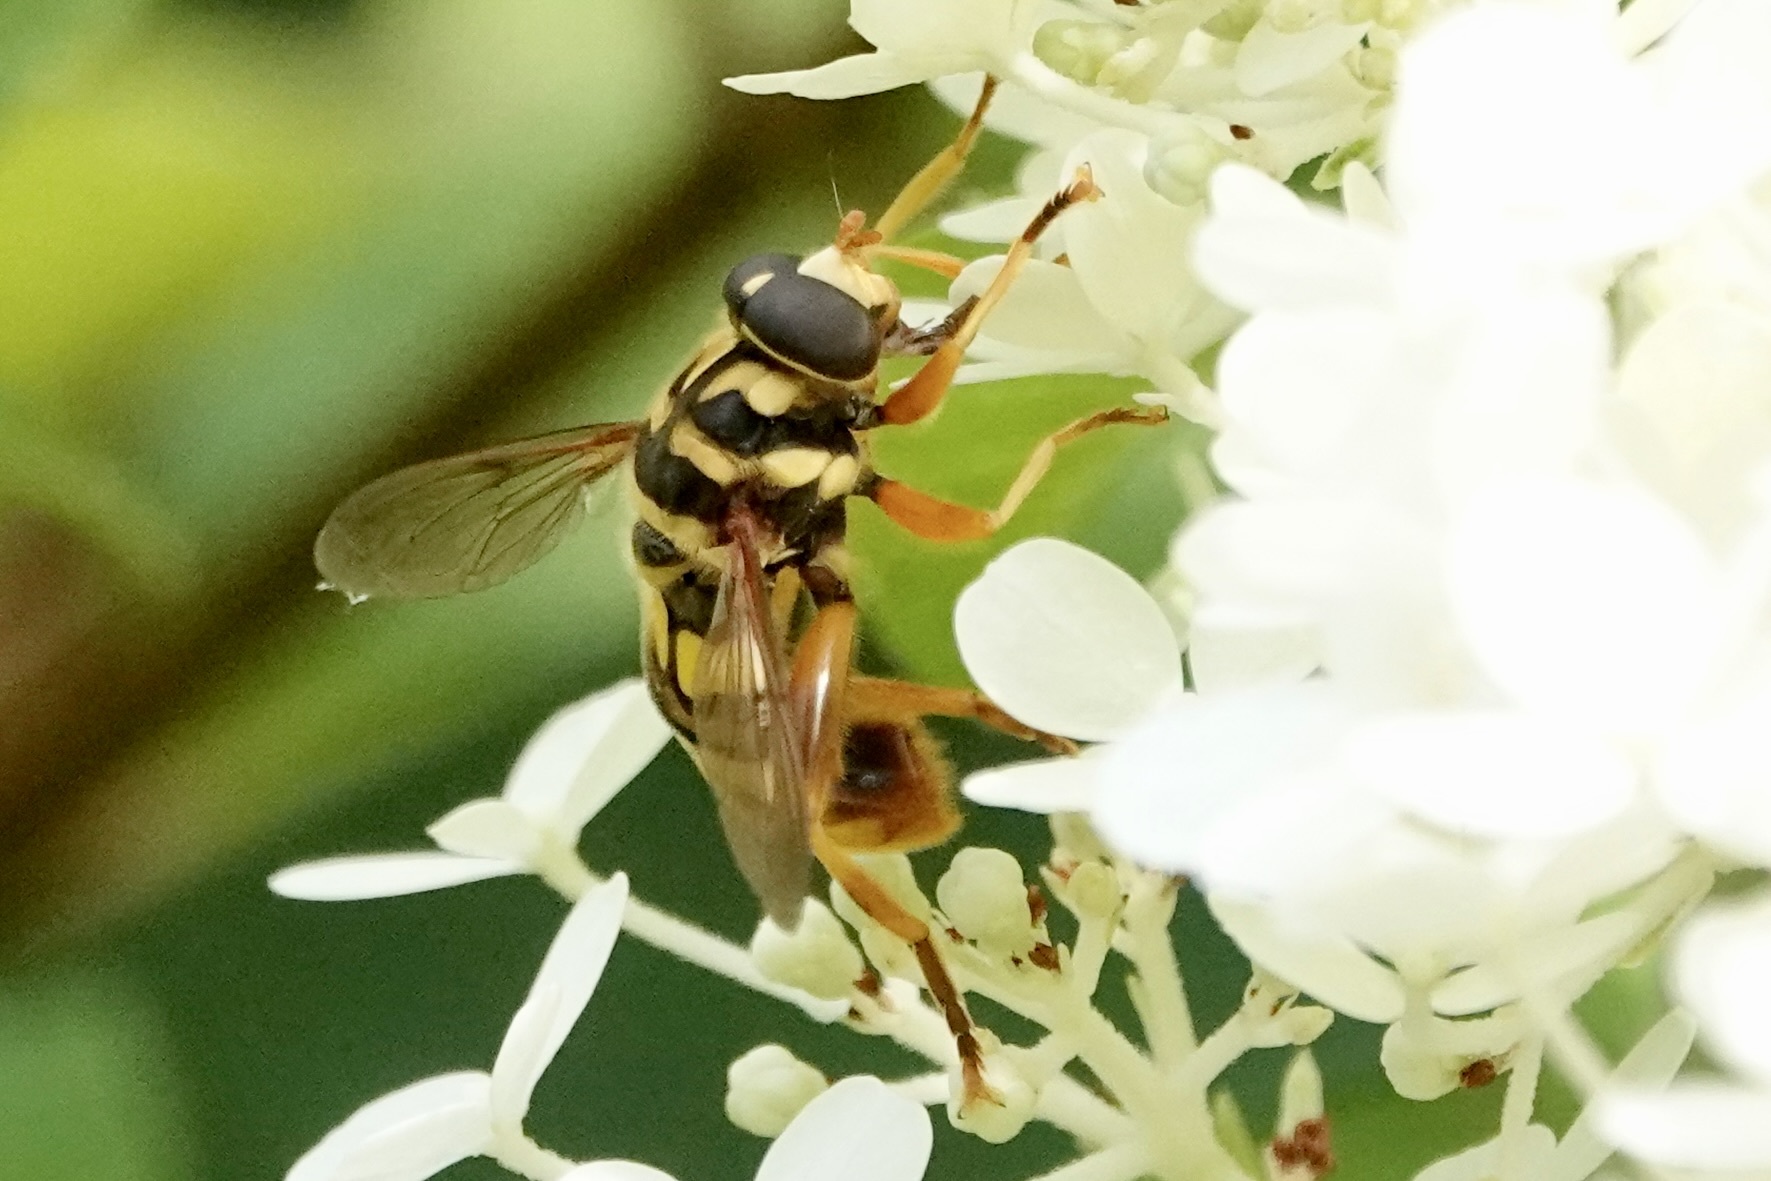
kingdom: Animalia
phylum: Arthropoda
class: Insecta
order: Diptera
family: Syrphidae
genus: Milesia
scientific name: Milesia virginiensis
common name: Virginia giant
